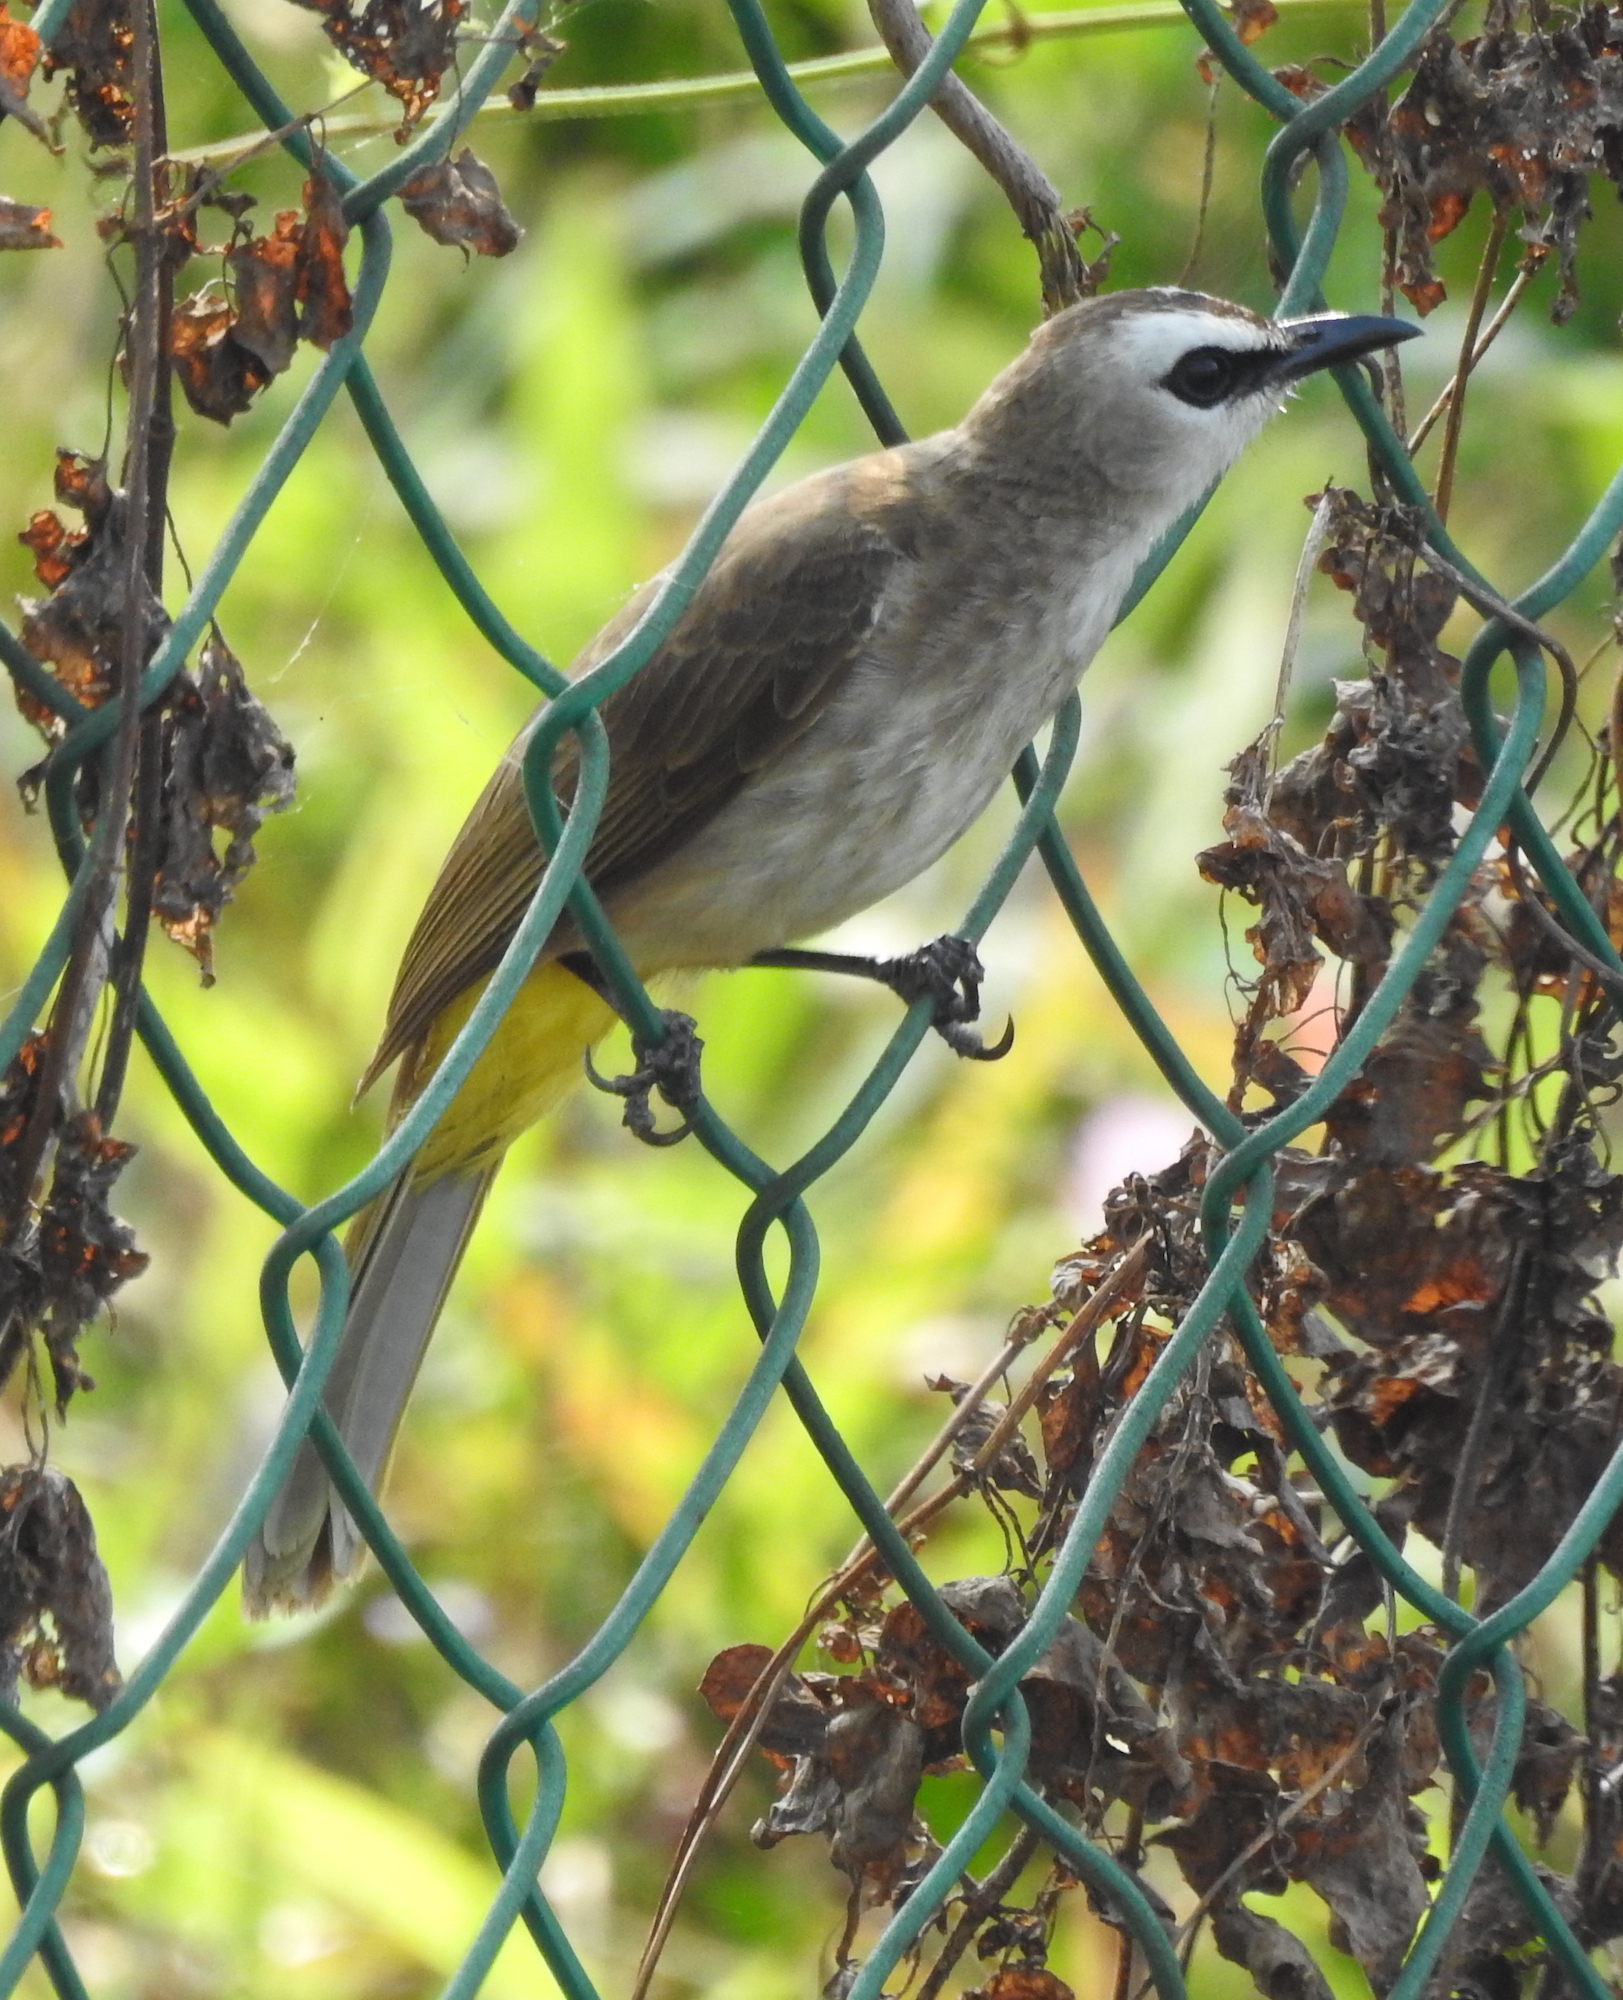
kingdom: Animalia
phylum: Chordata
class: Aves
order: Passeriformes
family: Pycnonotidae
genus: Pycnonotus
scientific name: Pycnonotus goiavier
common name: Yellow-vented bulbul
